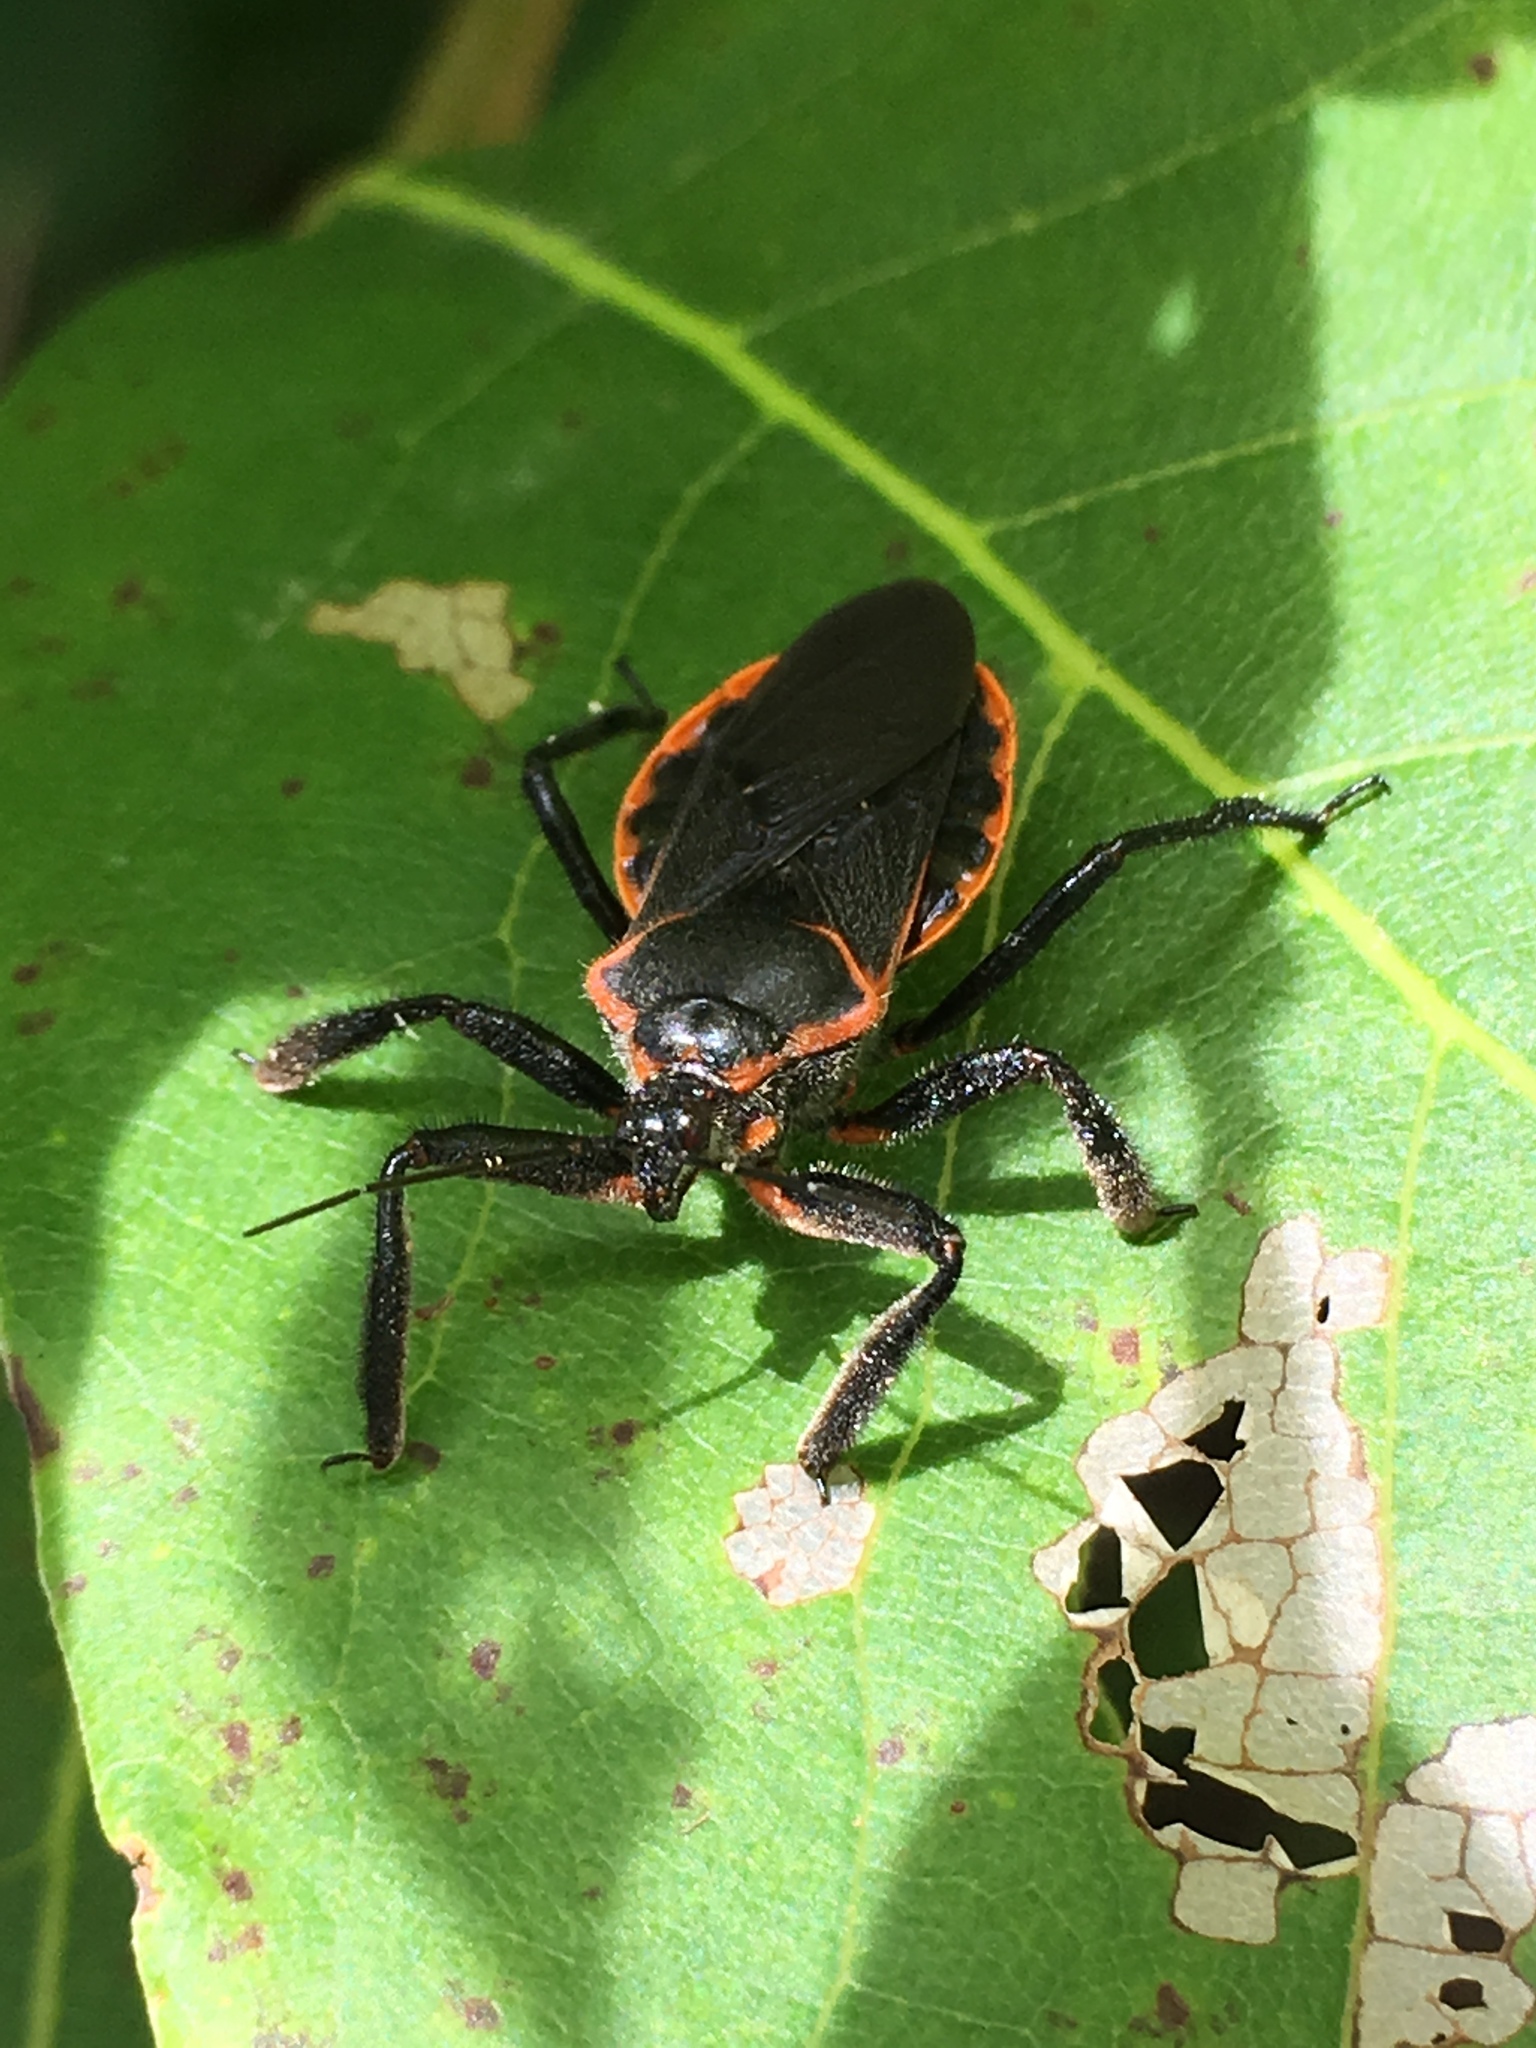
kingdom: Animalia
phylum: Arthropoda
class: Insecta
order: Hemiptera
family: Reduviidae
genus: Apiomerus
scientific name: Apiomerus crassipes
